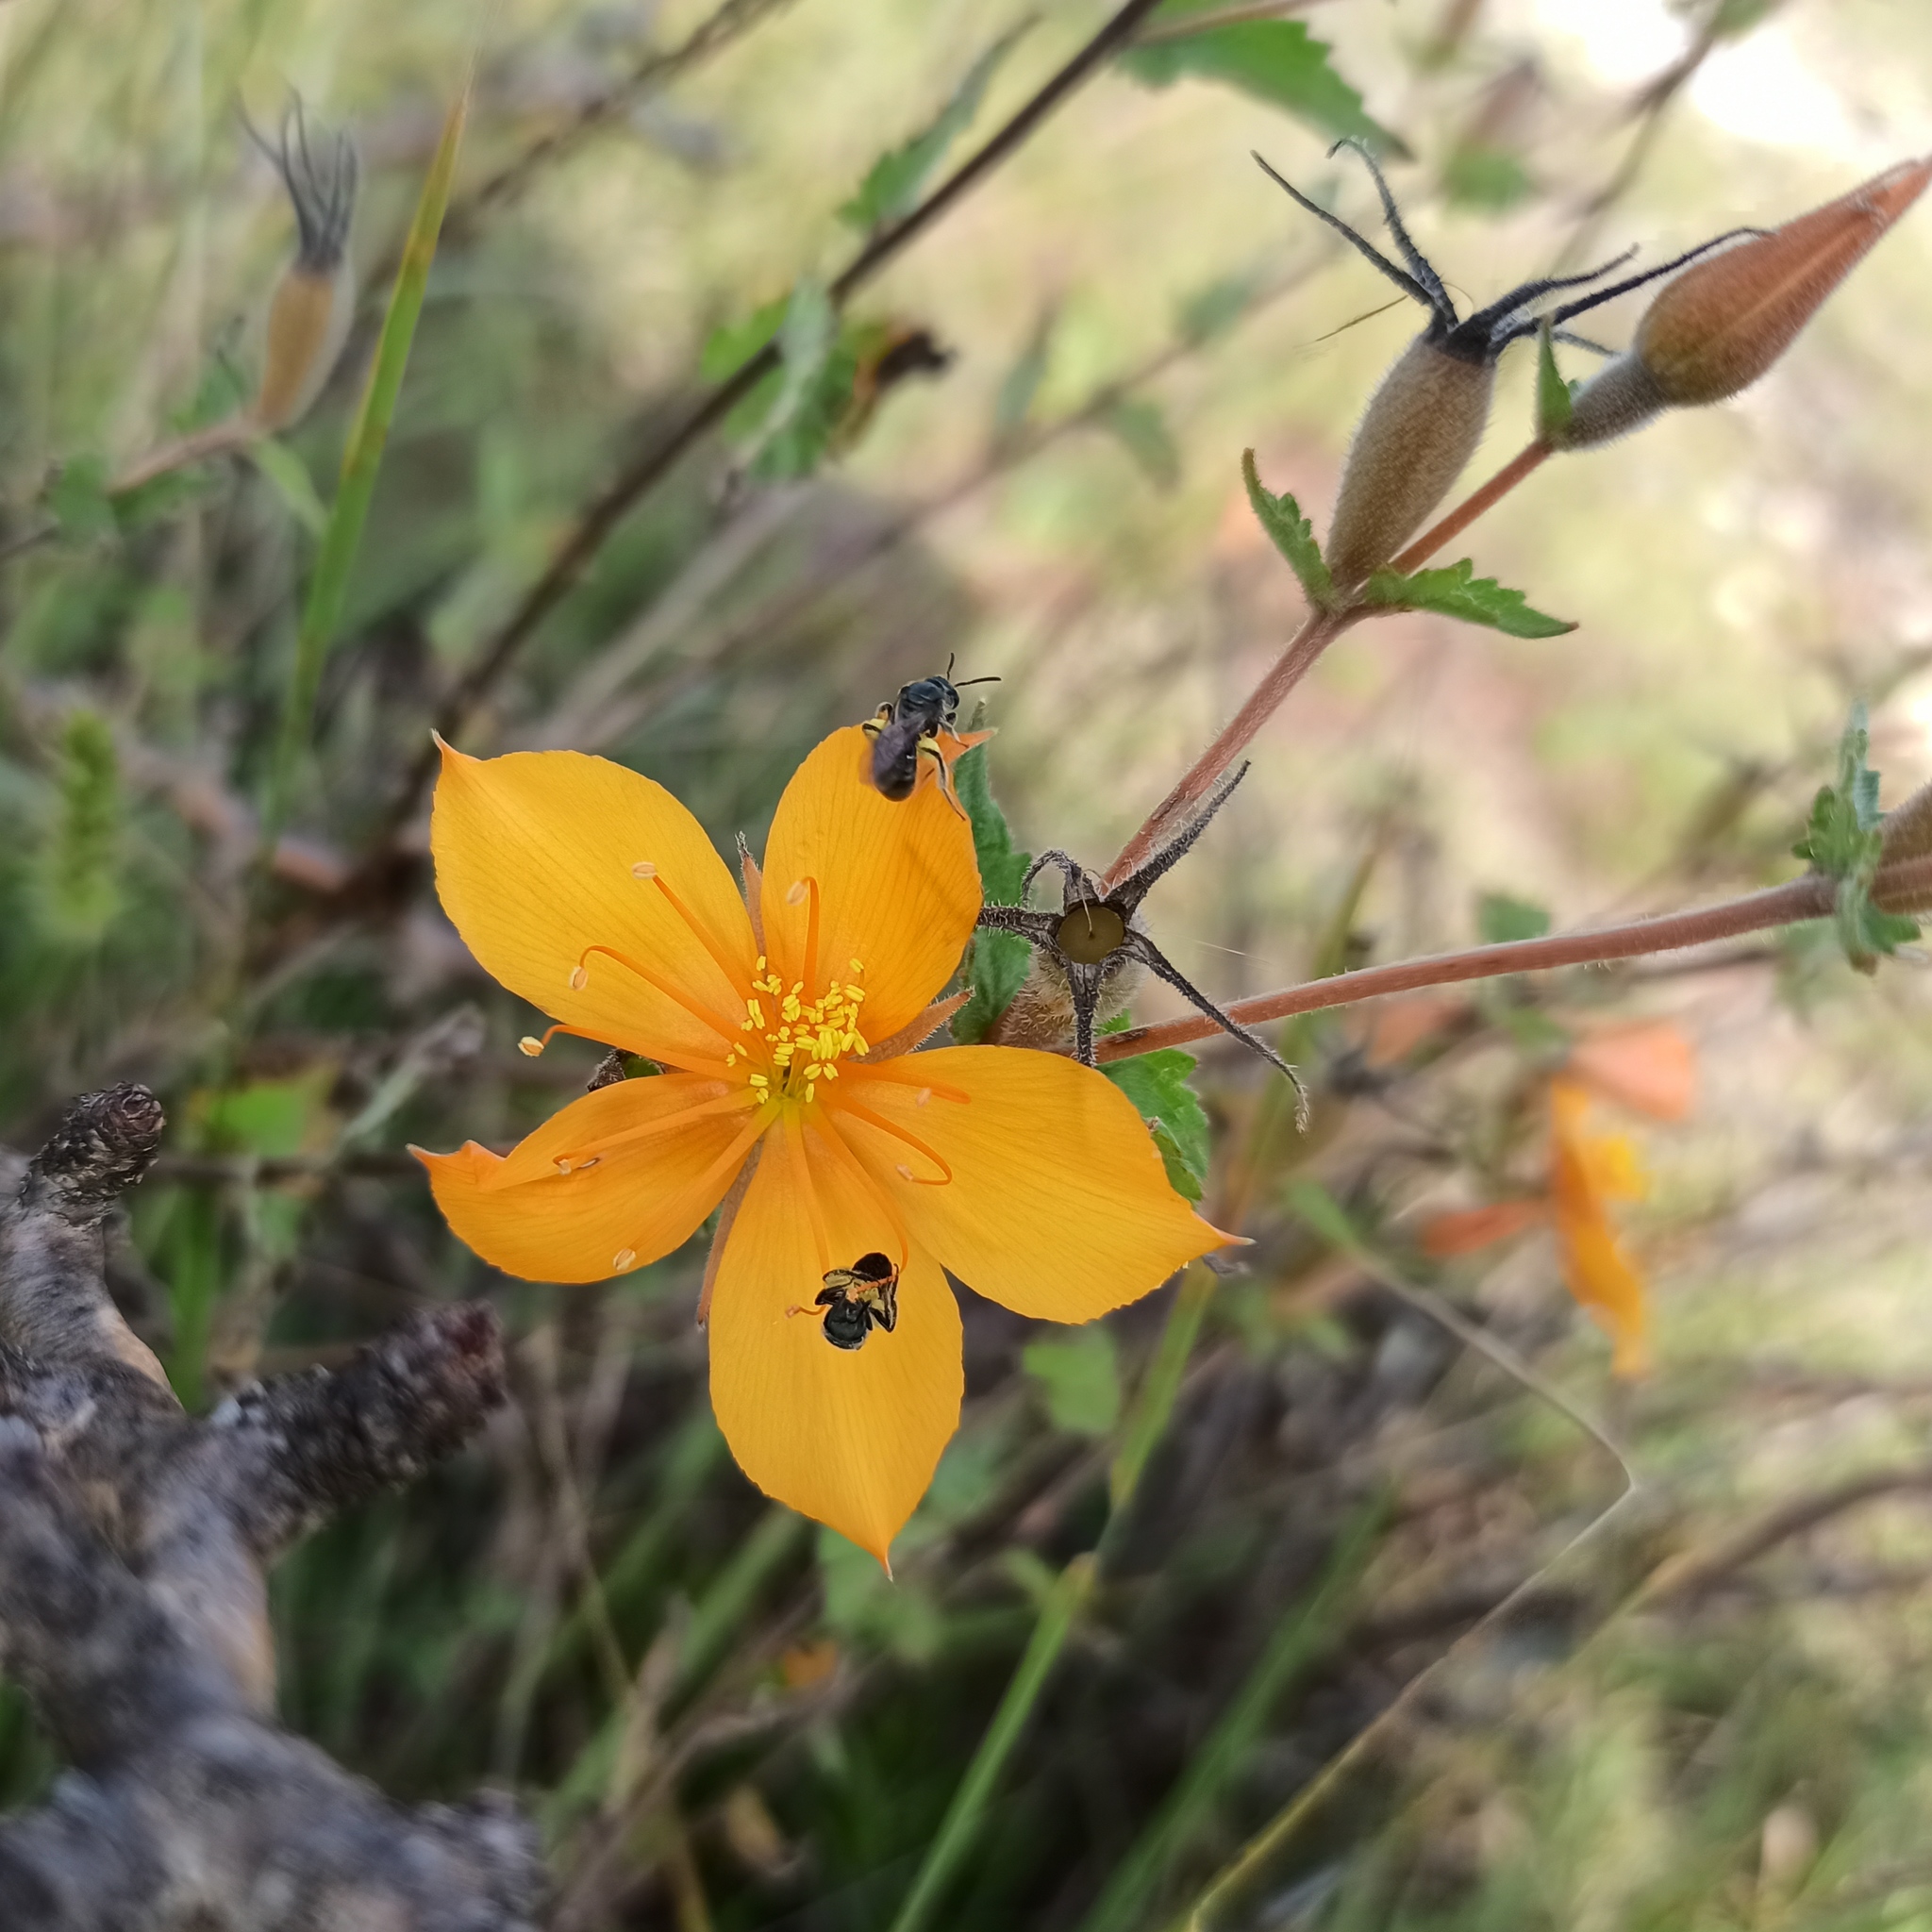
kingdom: Plantae
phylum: Tracheophyta
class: Magnoliopsida
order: Cornales
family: Loasaceae
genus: Mentzelia
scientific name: Mentzelia hispida
